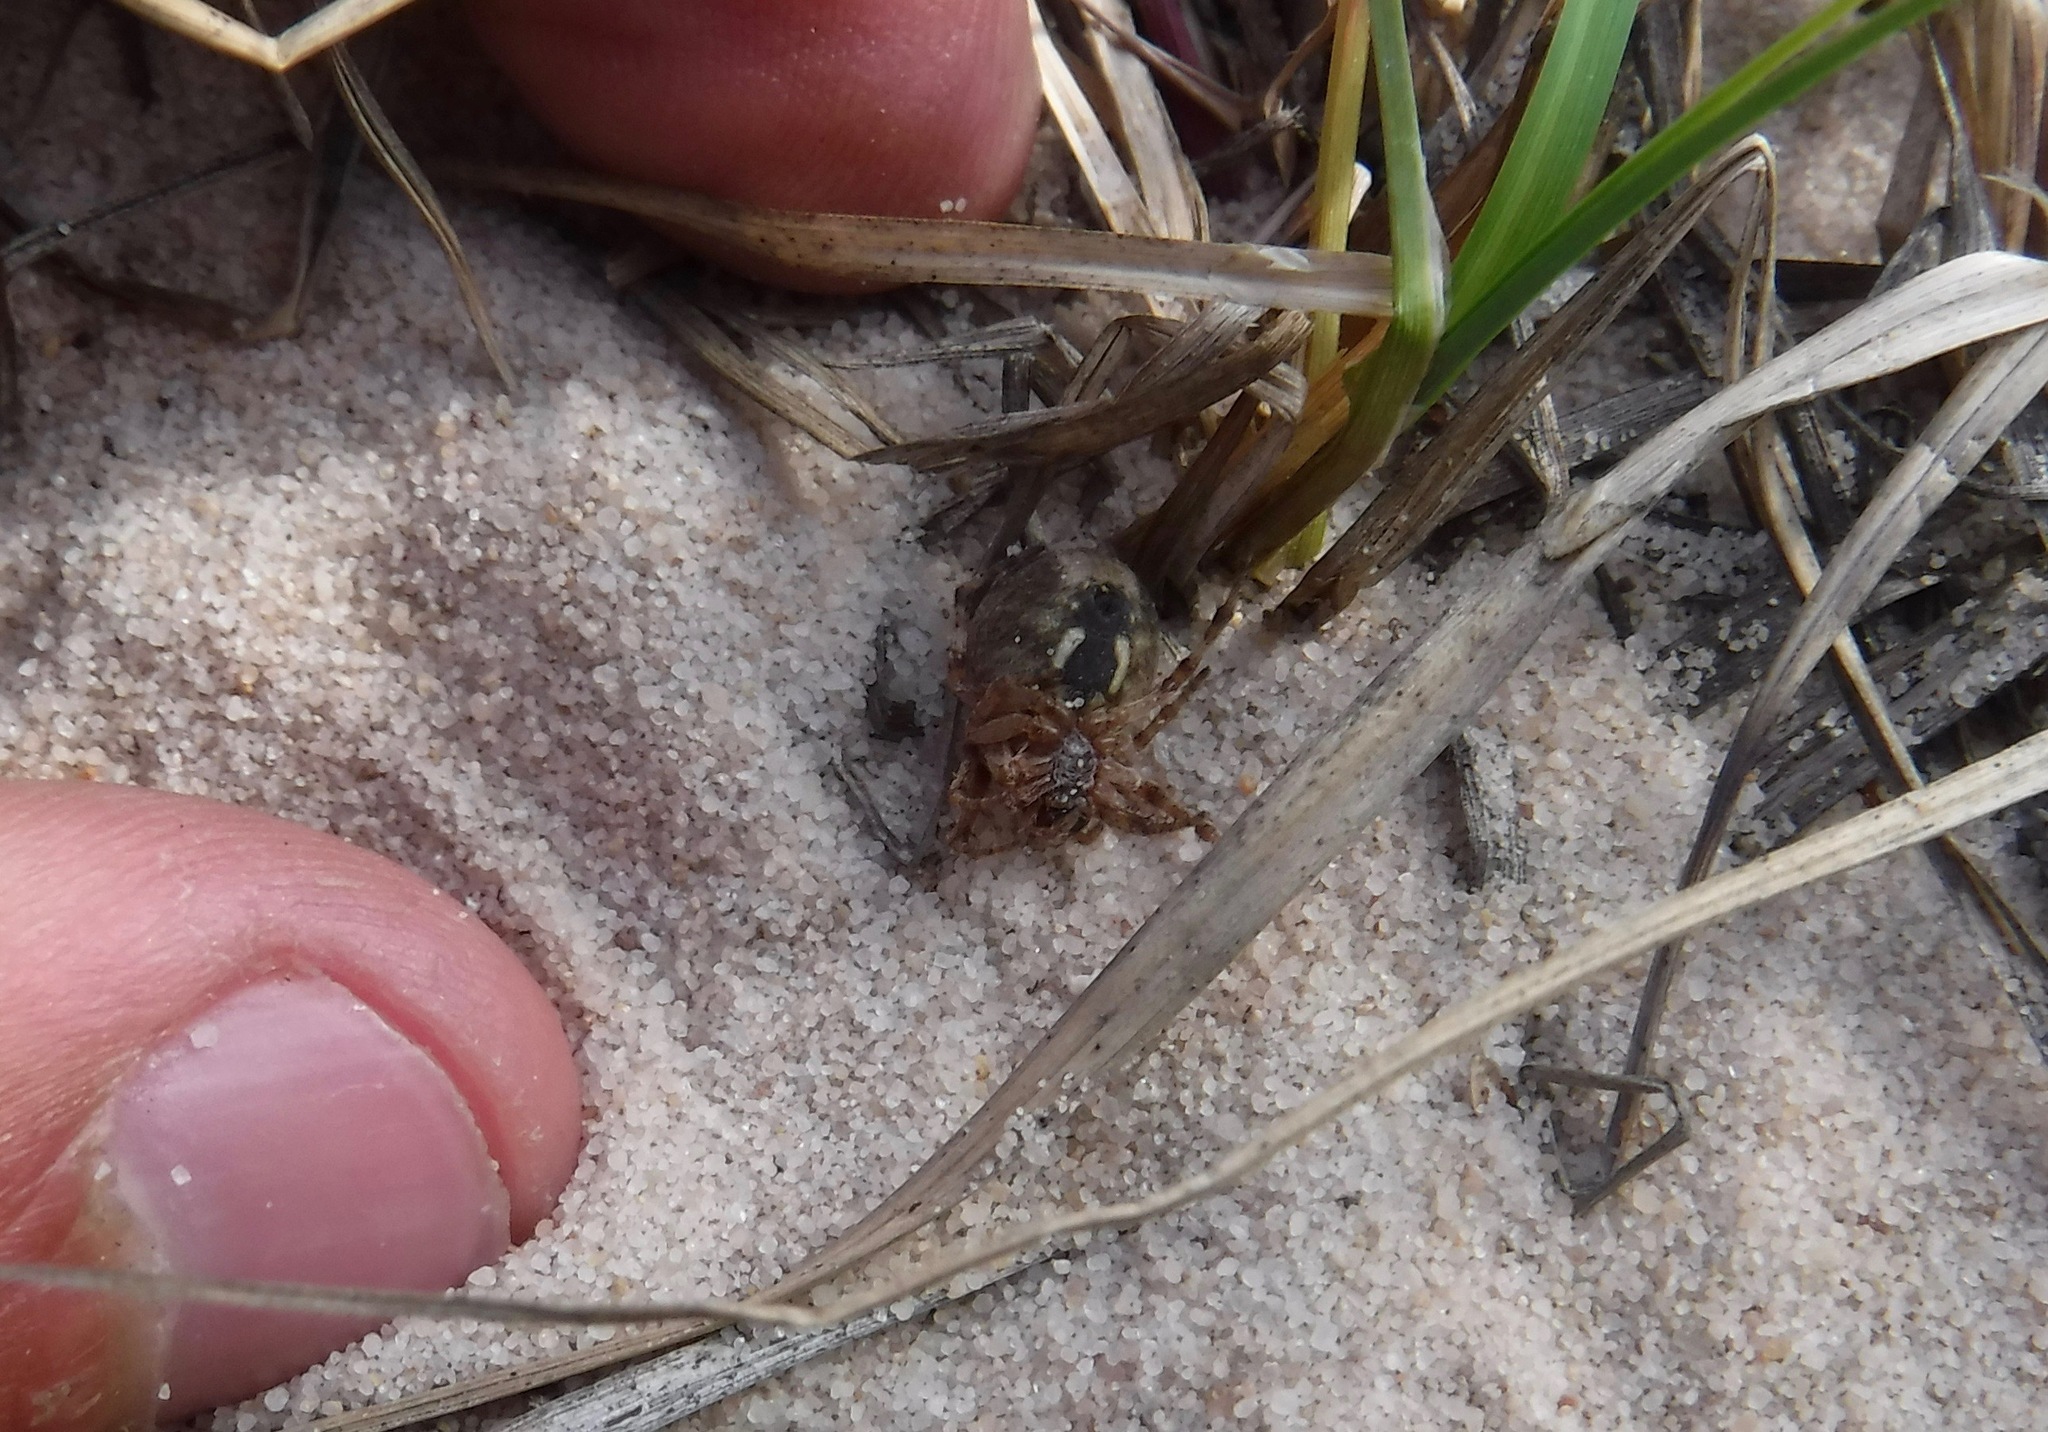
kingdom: Animalia
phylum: Arthropoda
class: Arachnida
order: Araneae
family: Araneidae
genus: Larinioides
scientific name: Larinioides patagiatus
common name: Ornamental orbweaver
